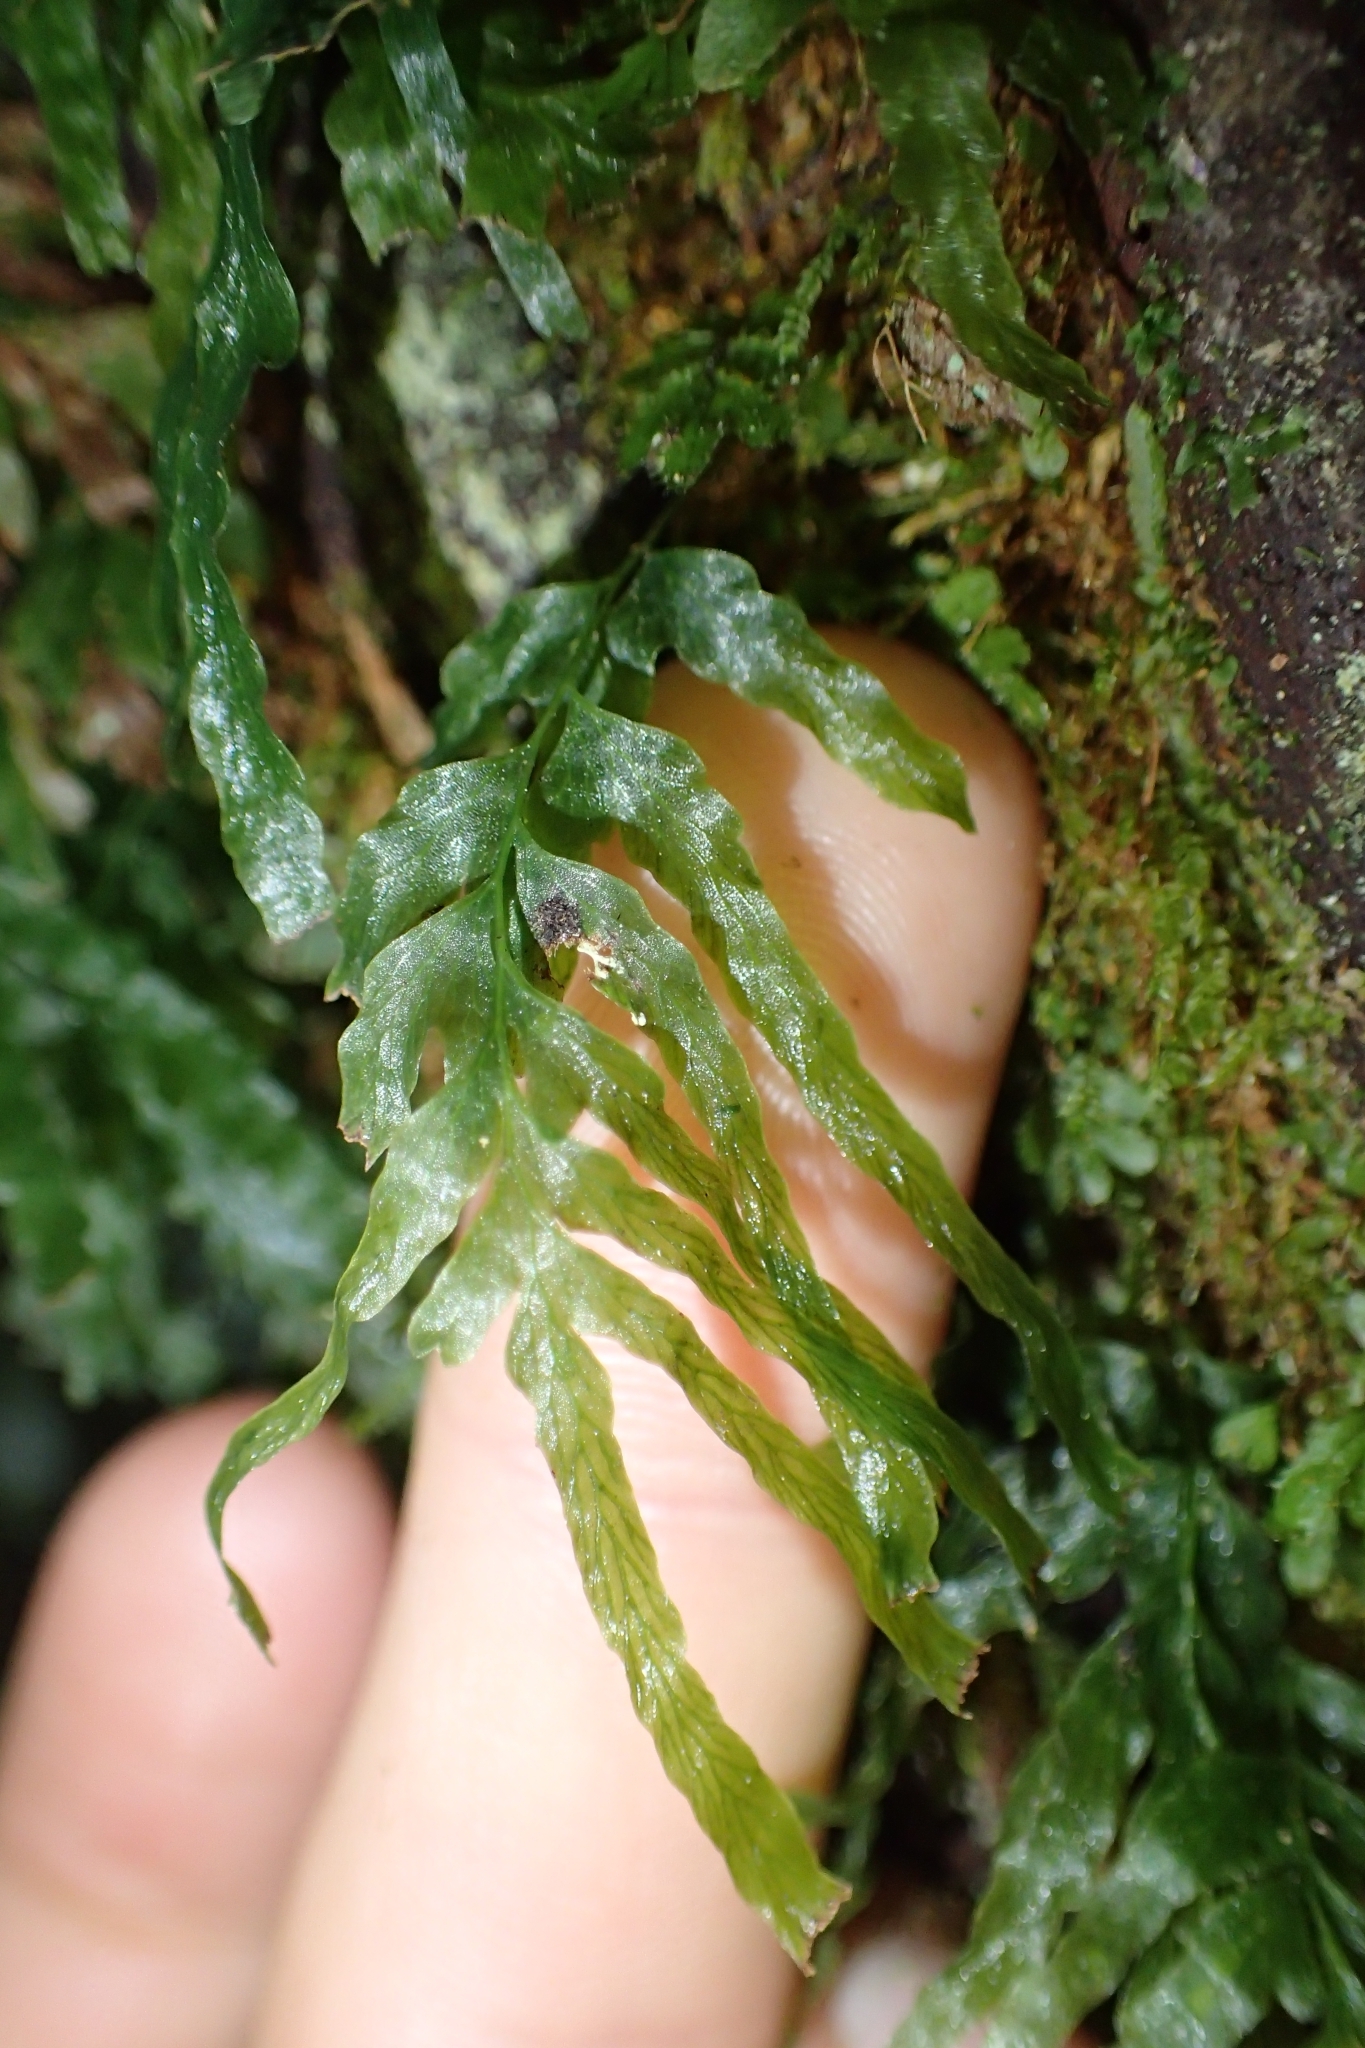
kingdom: Plantae
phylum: Tracheophyta
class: Polypodiopsida
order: Hymenophyllales
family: Hymenophyllaceae
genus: Polyphlebium
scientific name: Polyphlebium venosum
